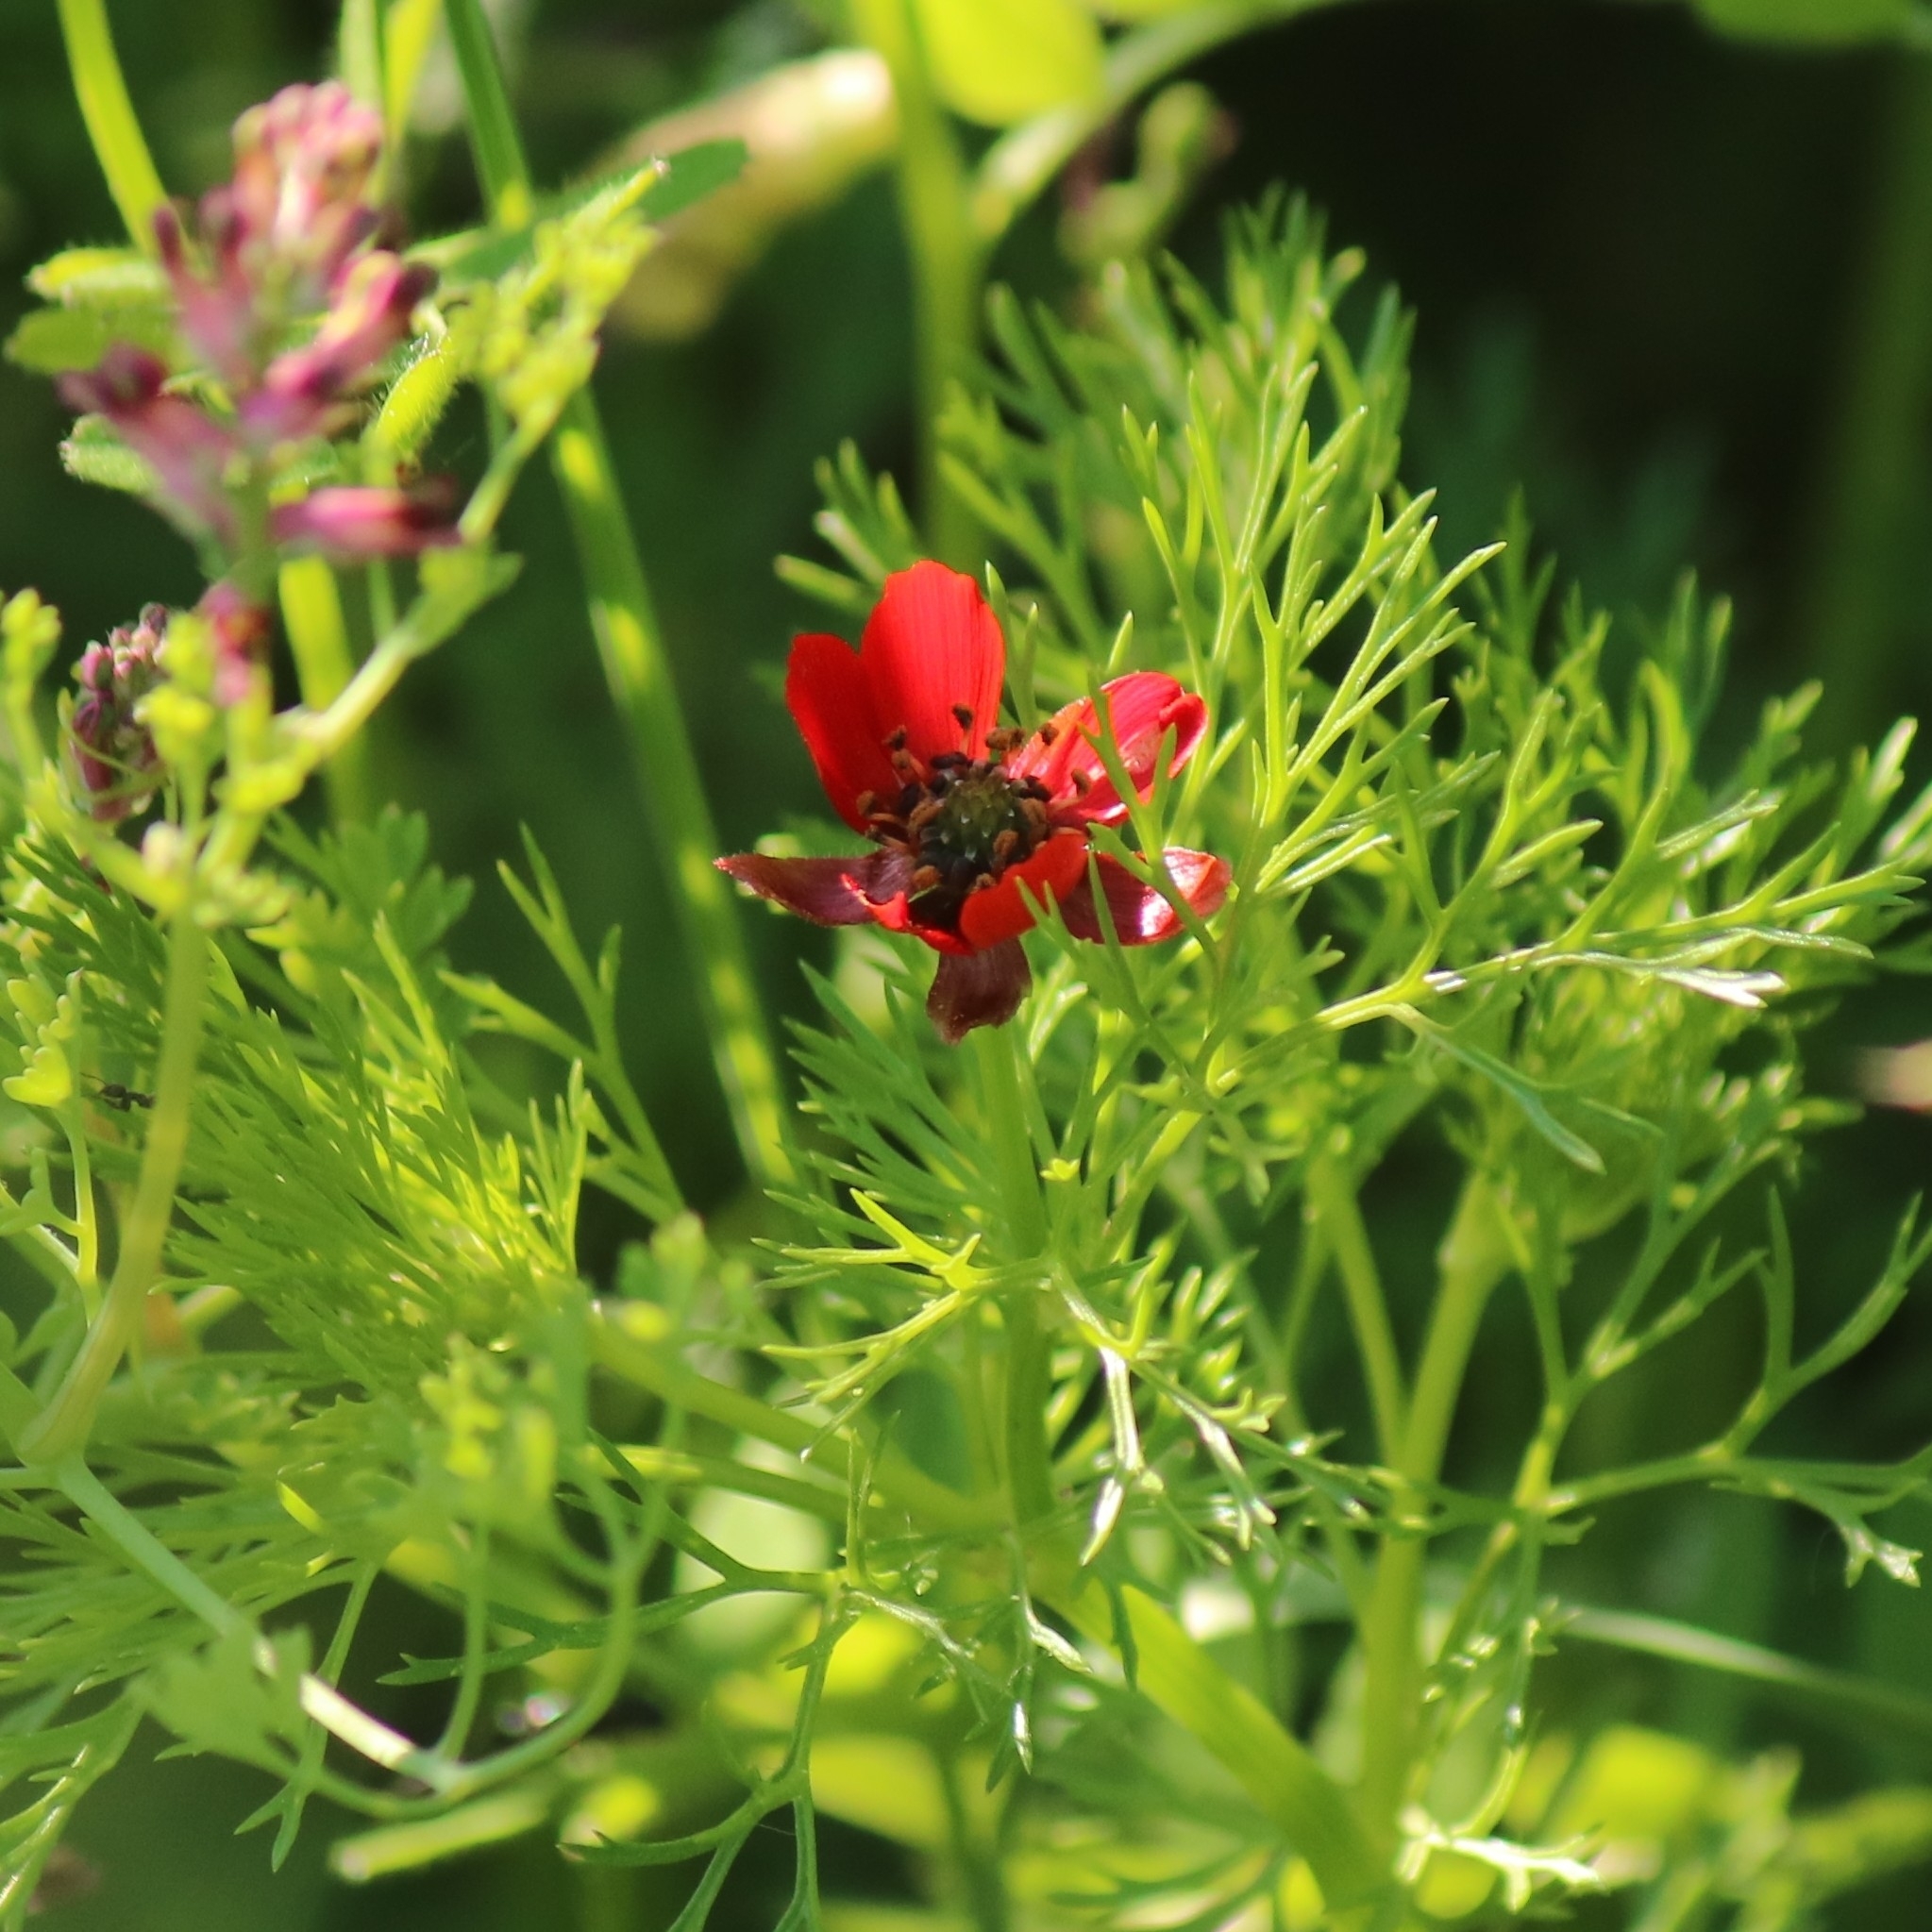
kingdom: Plantae
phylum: Tracheophyta
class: Magnoliopsida
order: Ranunculales
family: Ranunculaceae
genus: Adonis
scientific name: Adonis annua
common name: Pheasant's-eye
